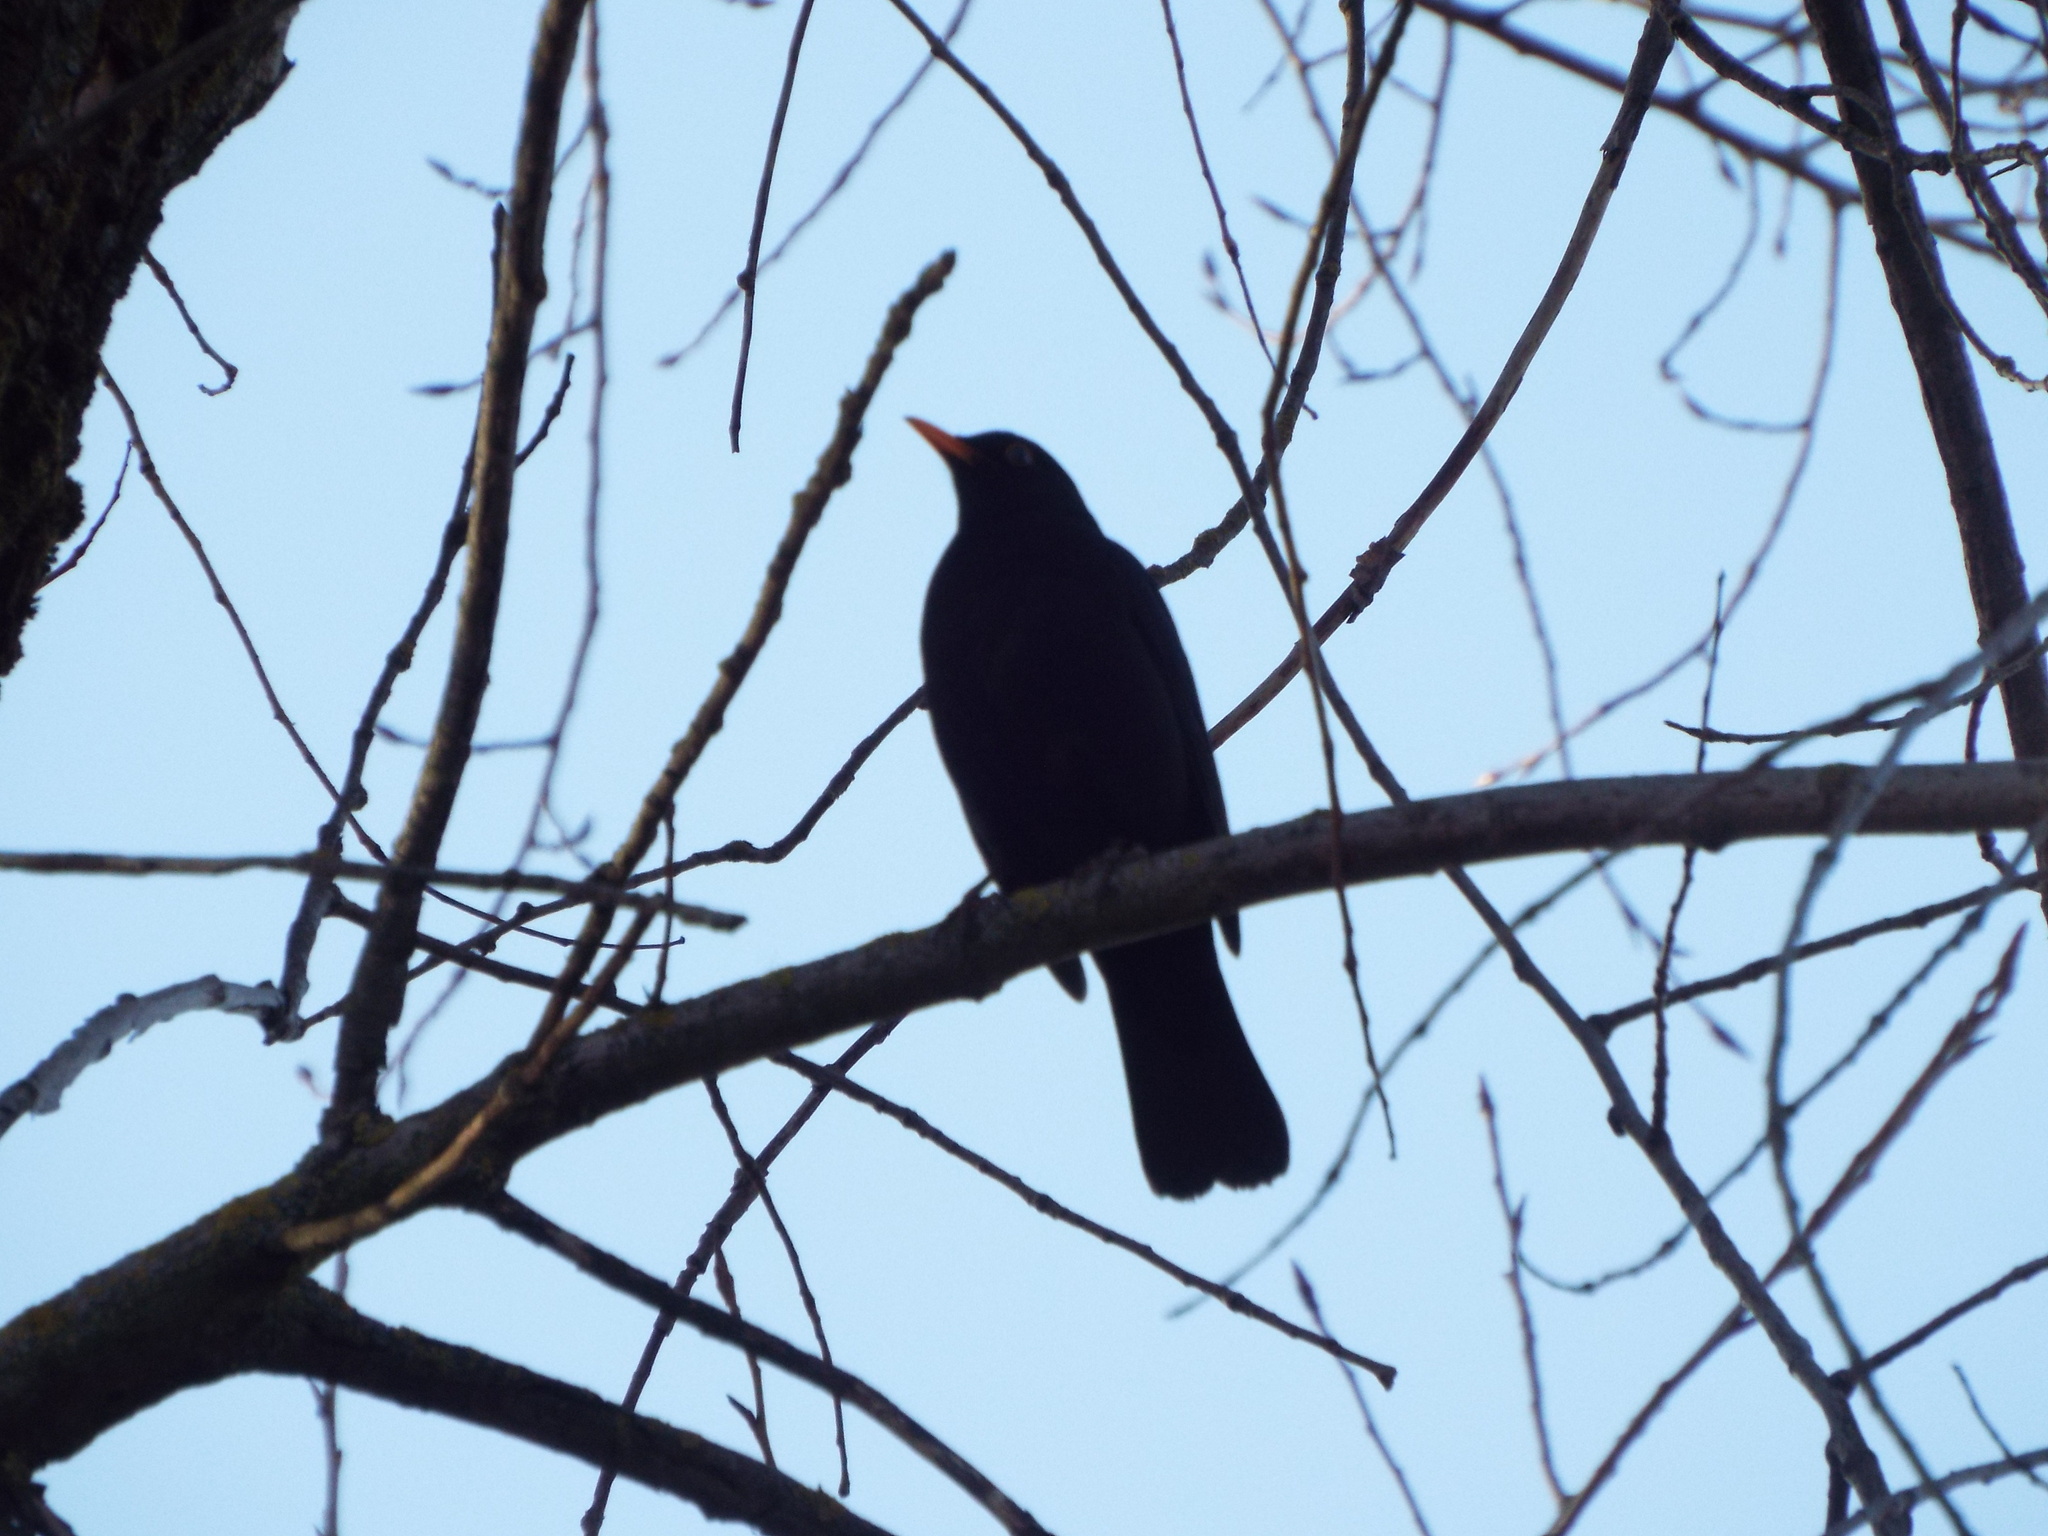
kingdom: Animalia
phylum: Chordata
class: Aves
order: Passeriformes
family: Turdidae
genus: Turdus
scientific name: Turdus merula
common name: Common blackbird
